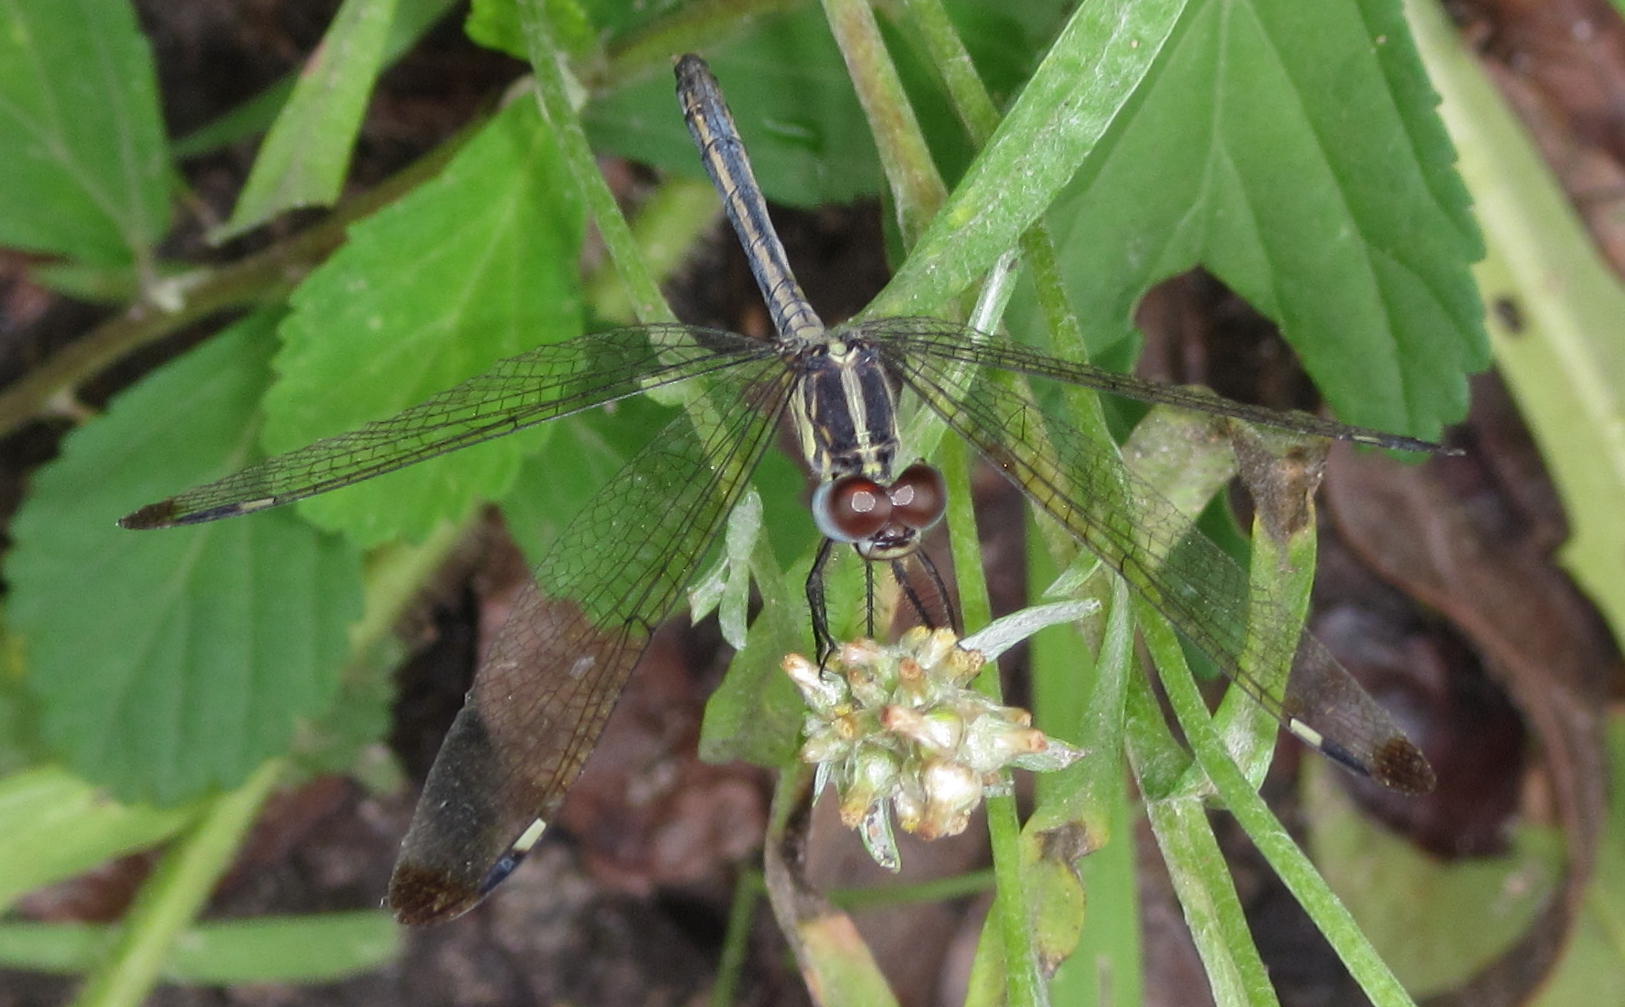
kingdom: Animalia
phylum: Arthropoda
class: Insecta
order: Odonata
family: Libellulidae
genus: Hemistigma
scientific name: Hemistigma albipunctum
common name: African pied-spot
